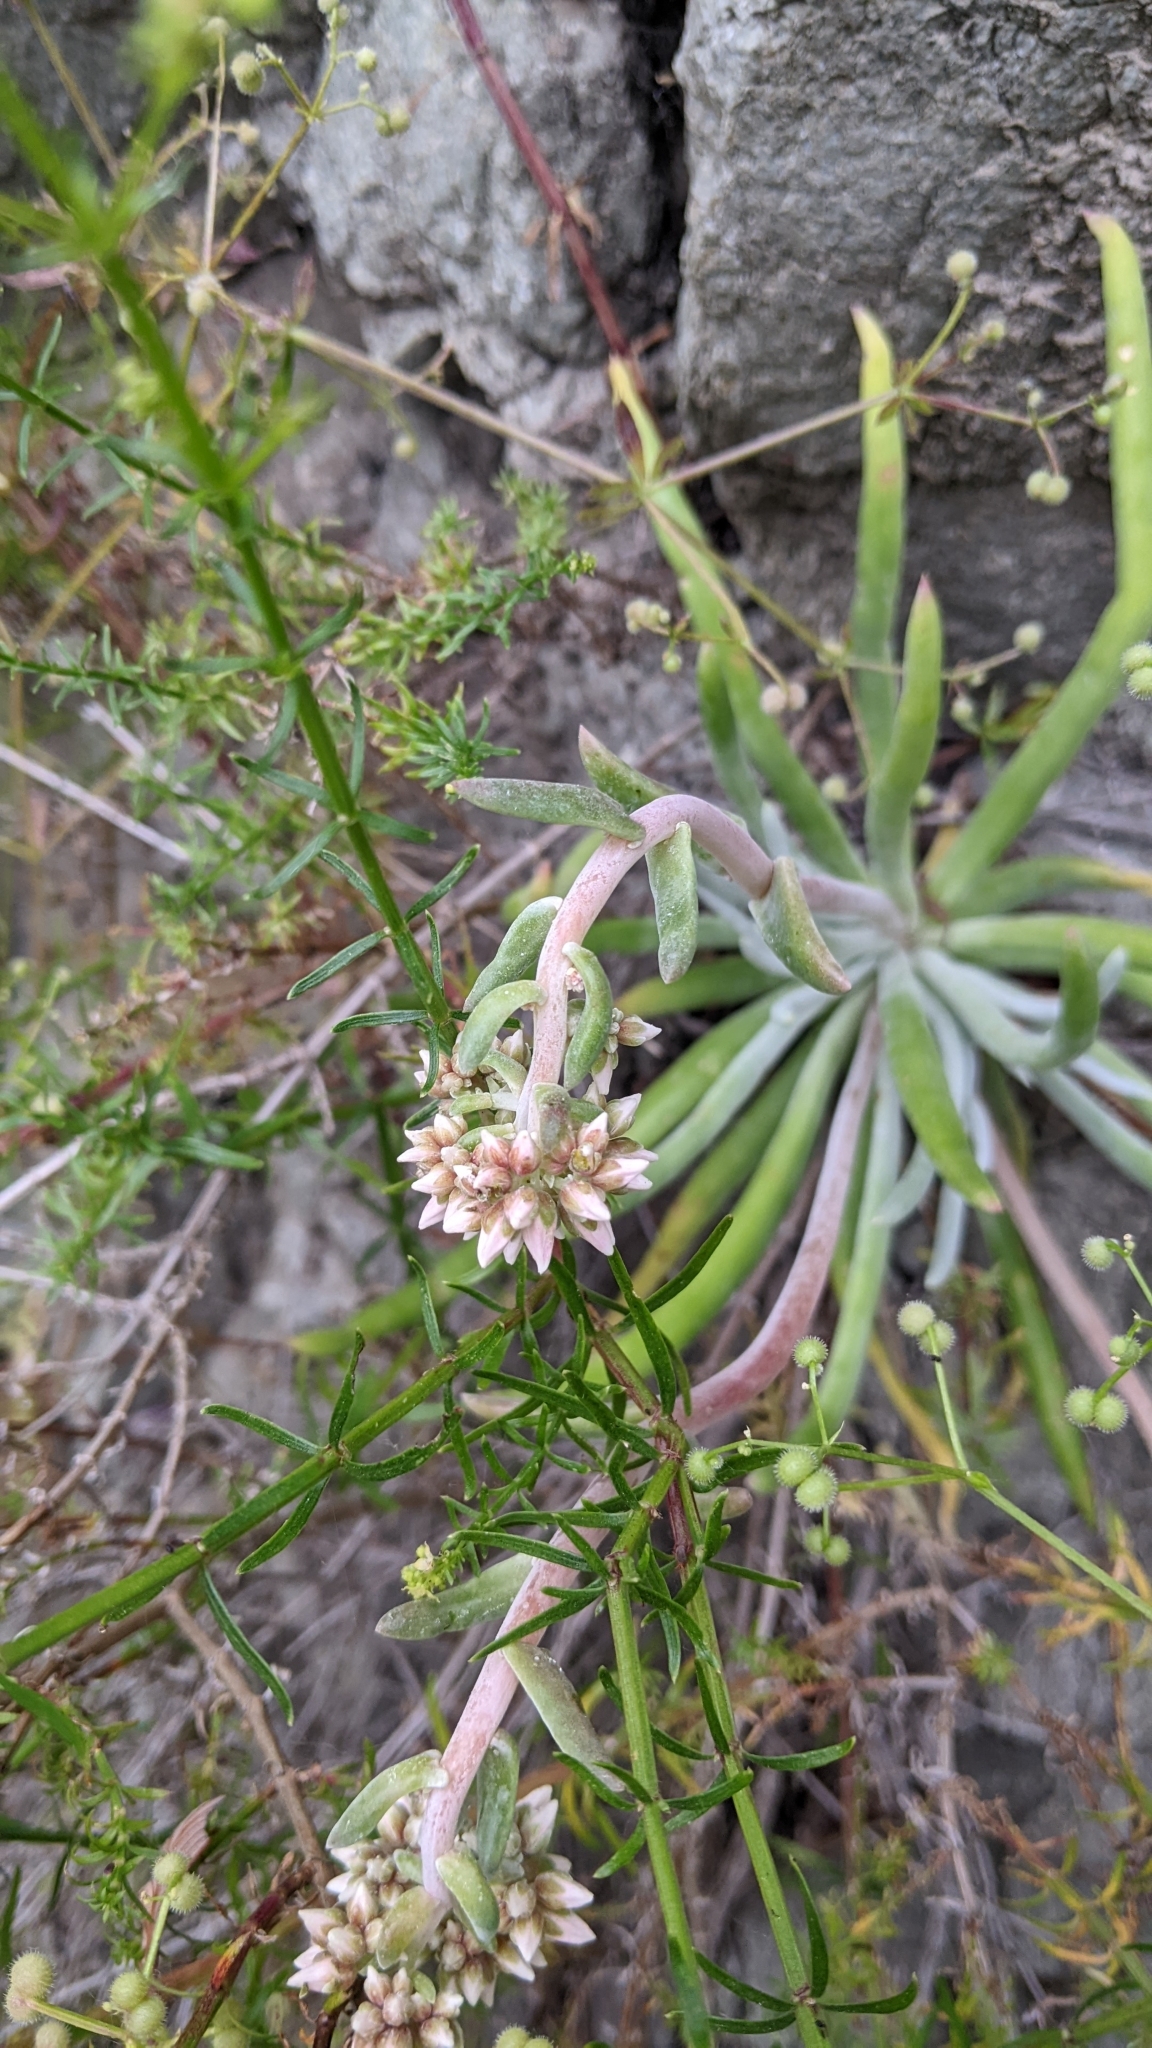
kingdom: Plantae
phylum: Tracheophyta
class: Magnoliopsida
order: Saxifragales
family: Crassulaceae
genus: Dudleya
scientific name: Dudleya densiflora
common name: San gabriel mountains dudleya
